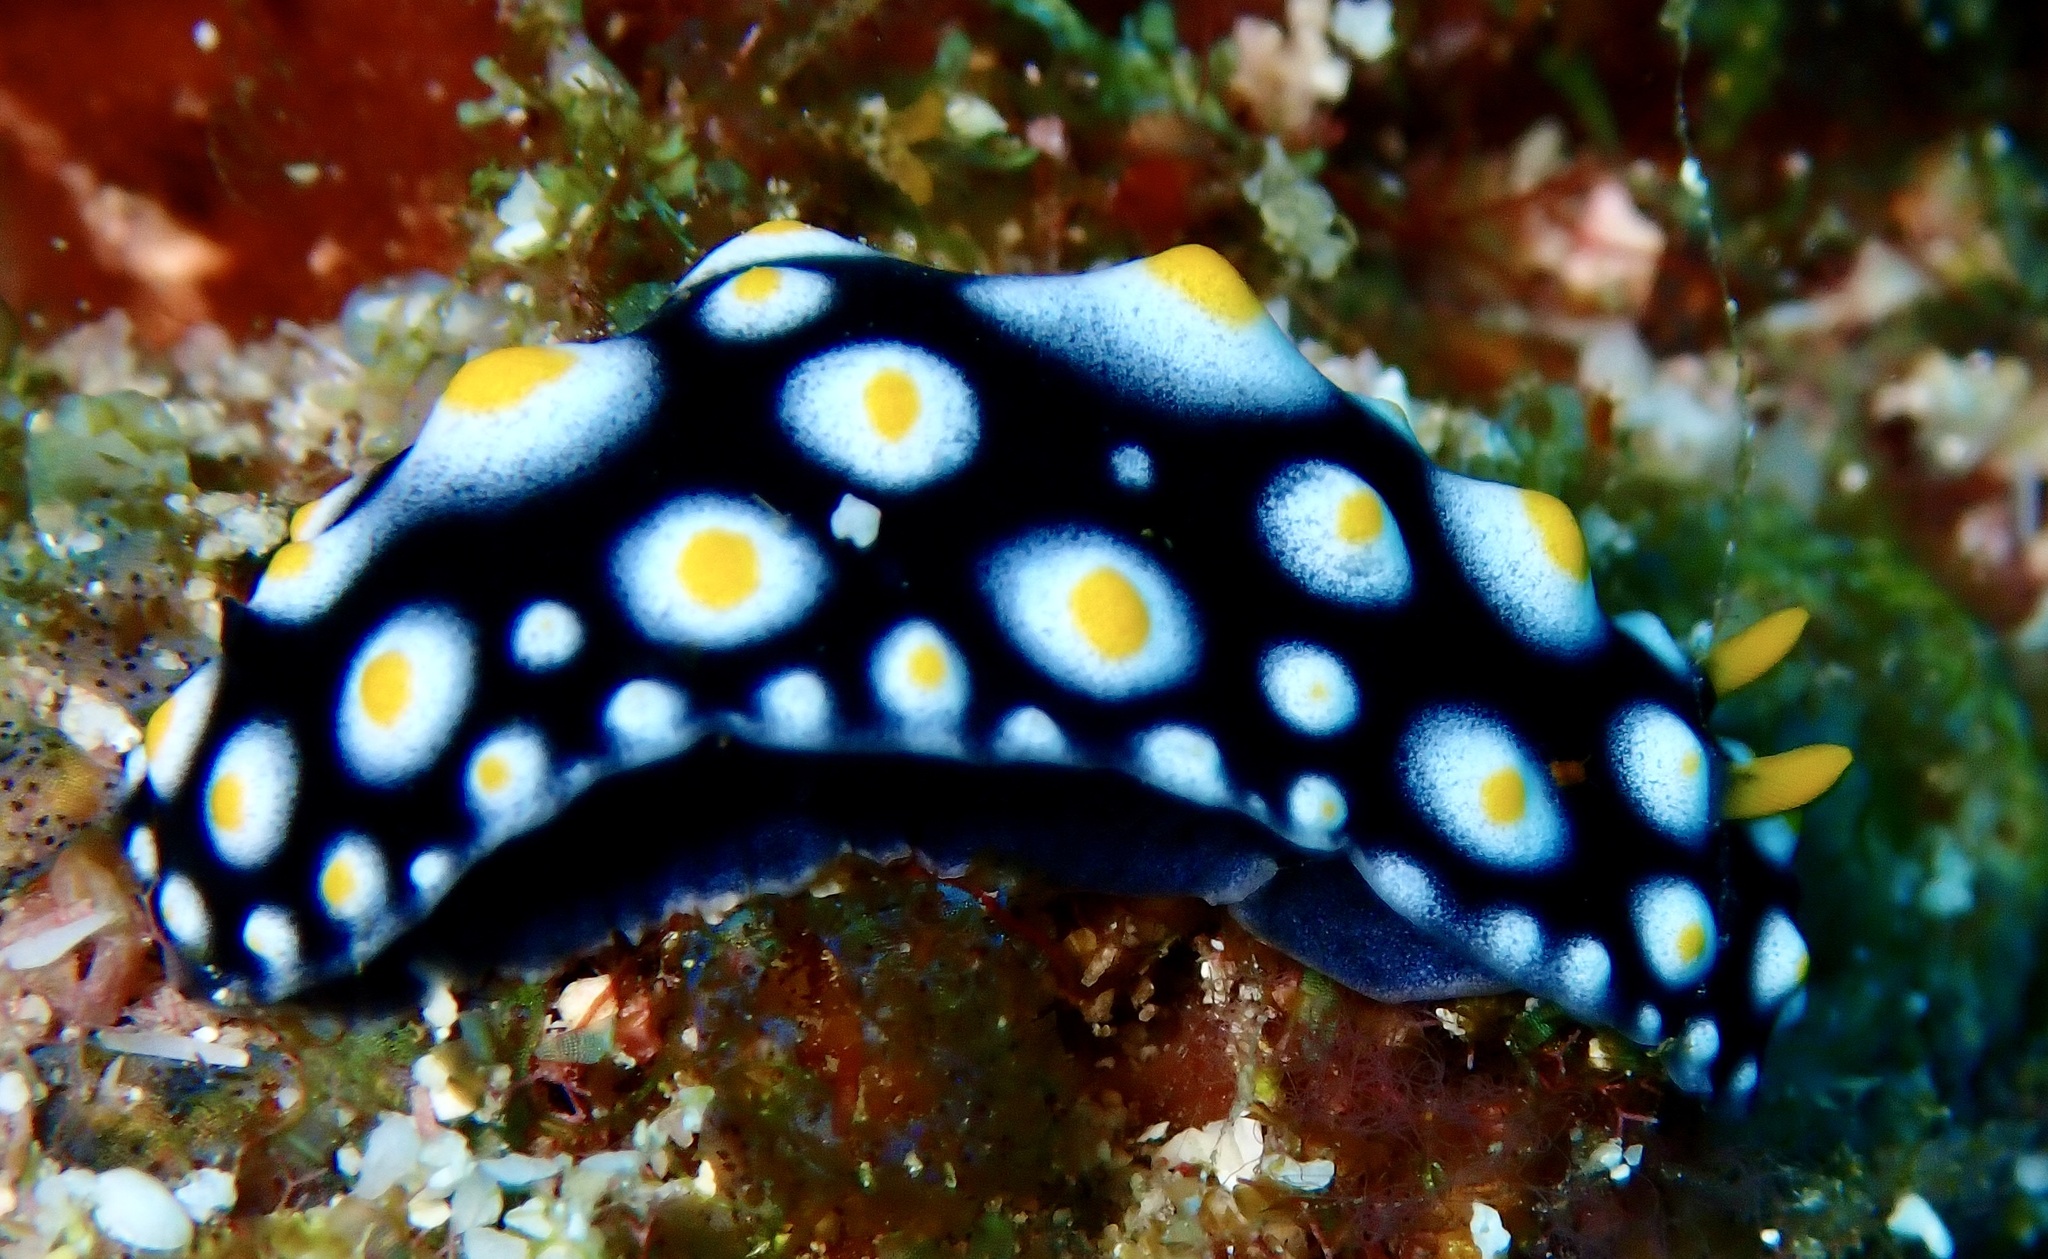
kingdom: Animalia
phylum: Mollusca
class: Gastropoda
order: Nudibranchia
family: Phyllidiidae
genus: Phyllidia
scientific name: Phyllidia carlsonhoffi
